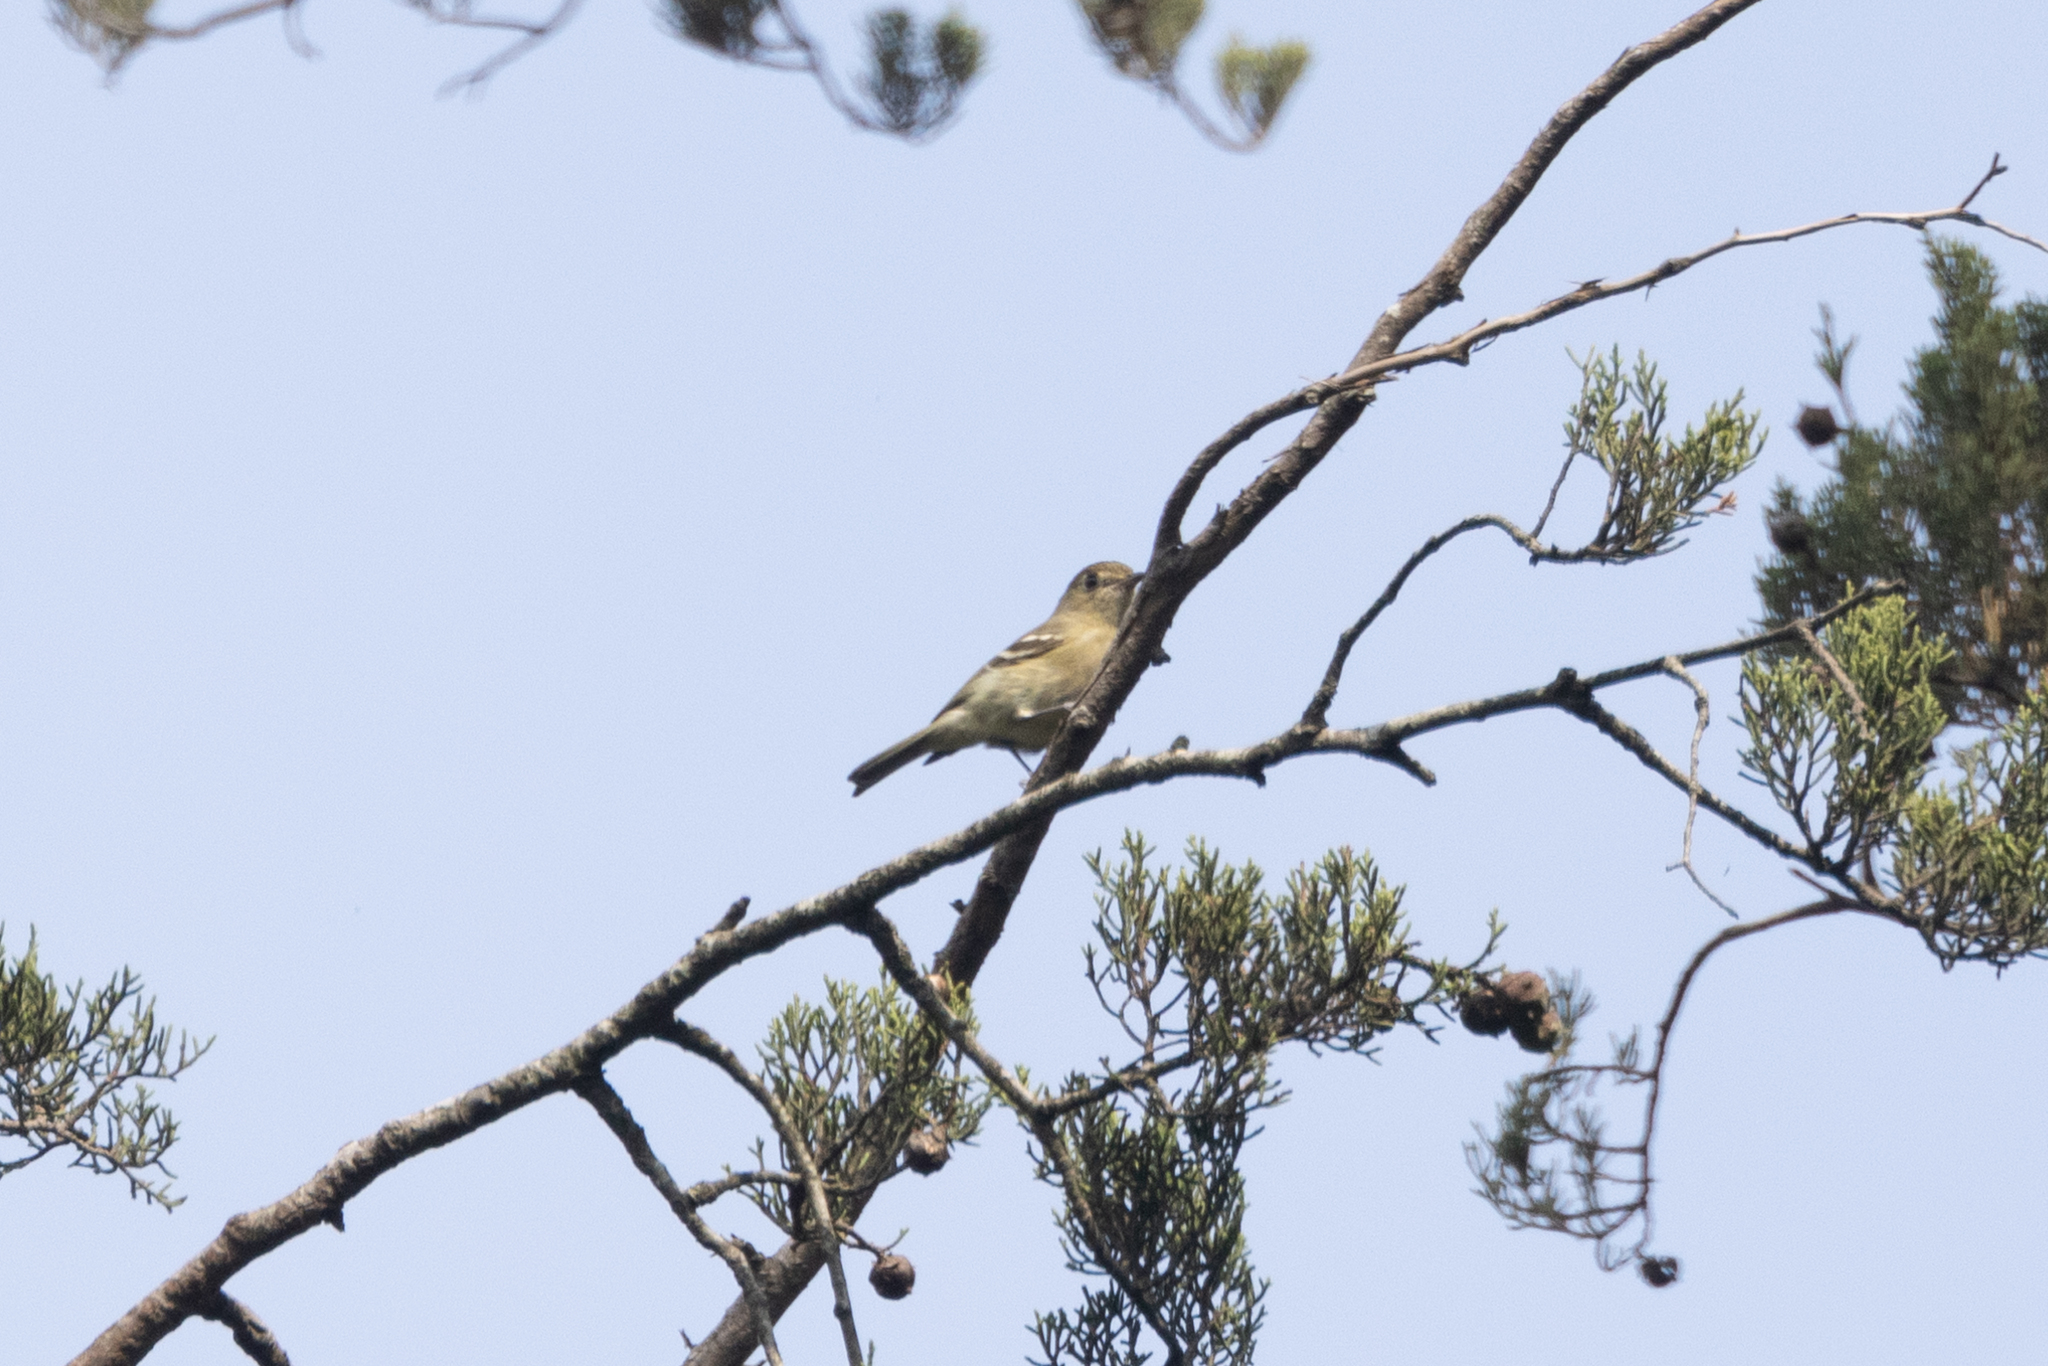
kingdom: Animalia
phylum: Chordata
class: Aves
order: Passeriformes
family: Vireonidae
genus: Vireo
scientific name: Vireo huttoni
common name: Hutton's vireo
